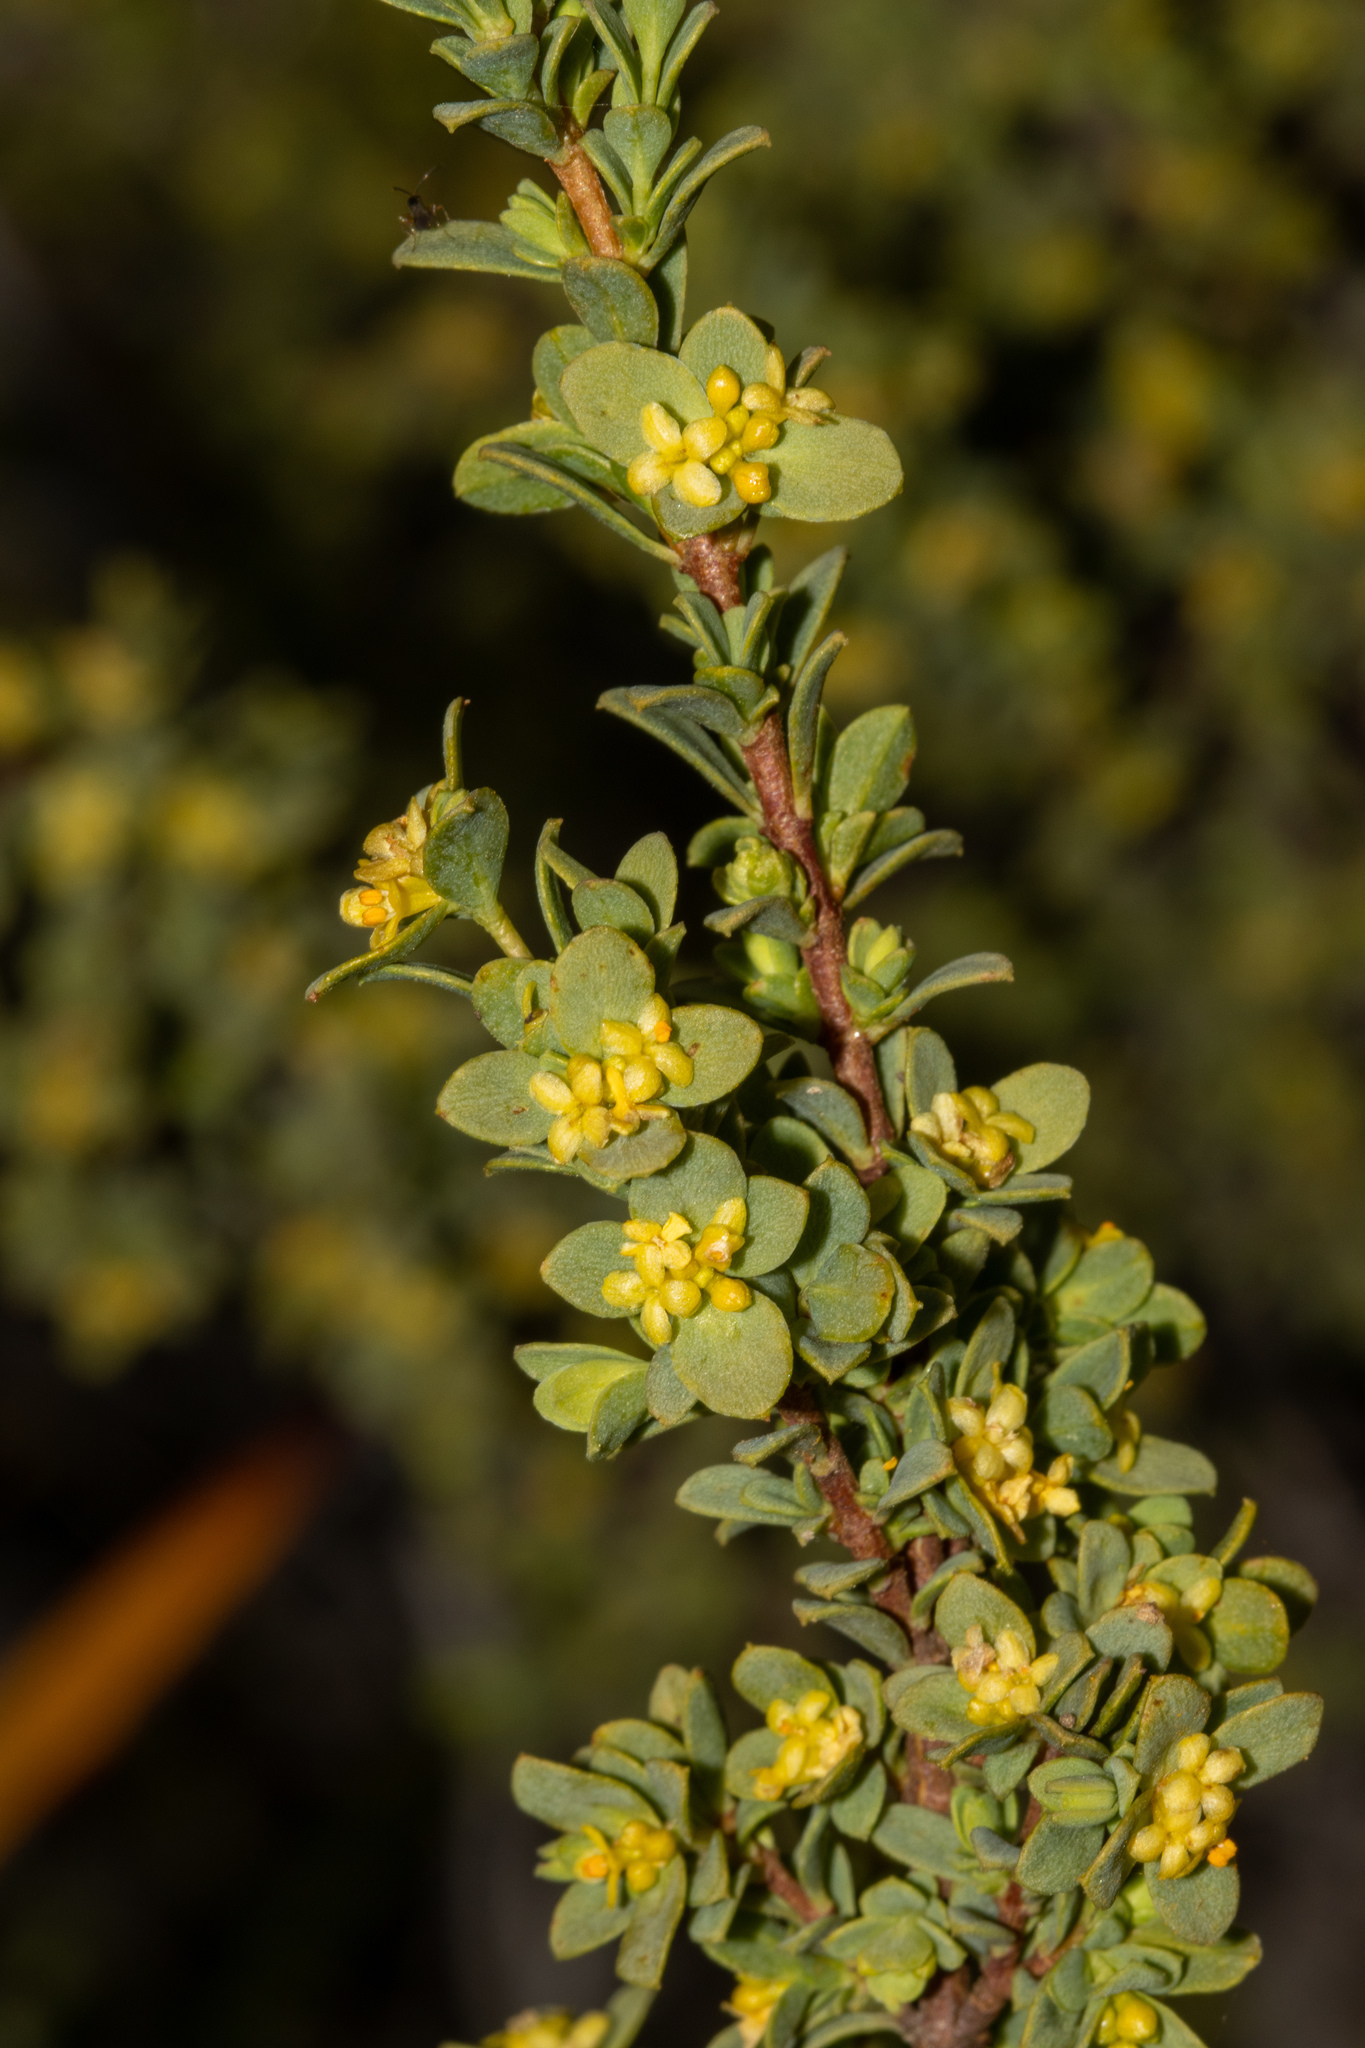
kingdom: Plantae
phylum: Tracheophyta
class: Magnoliopsida
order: Malvales
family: Thymelaeaceae
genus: Pimelea
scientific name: Pimelea serpyllifolia
